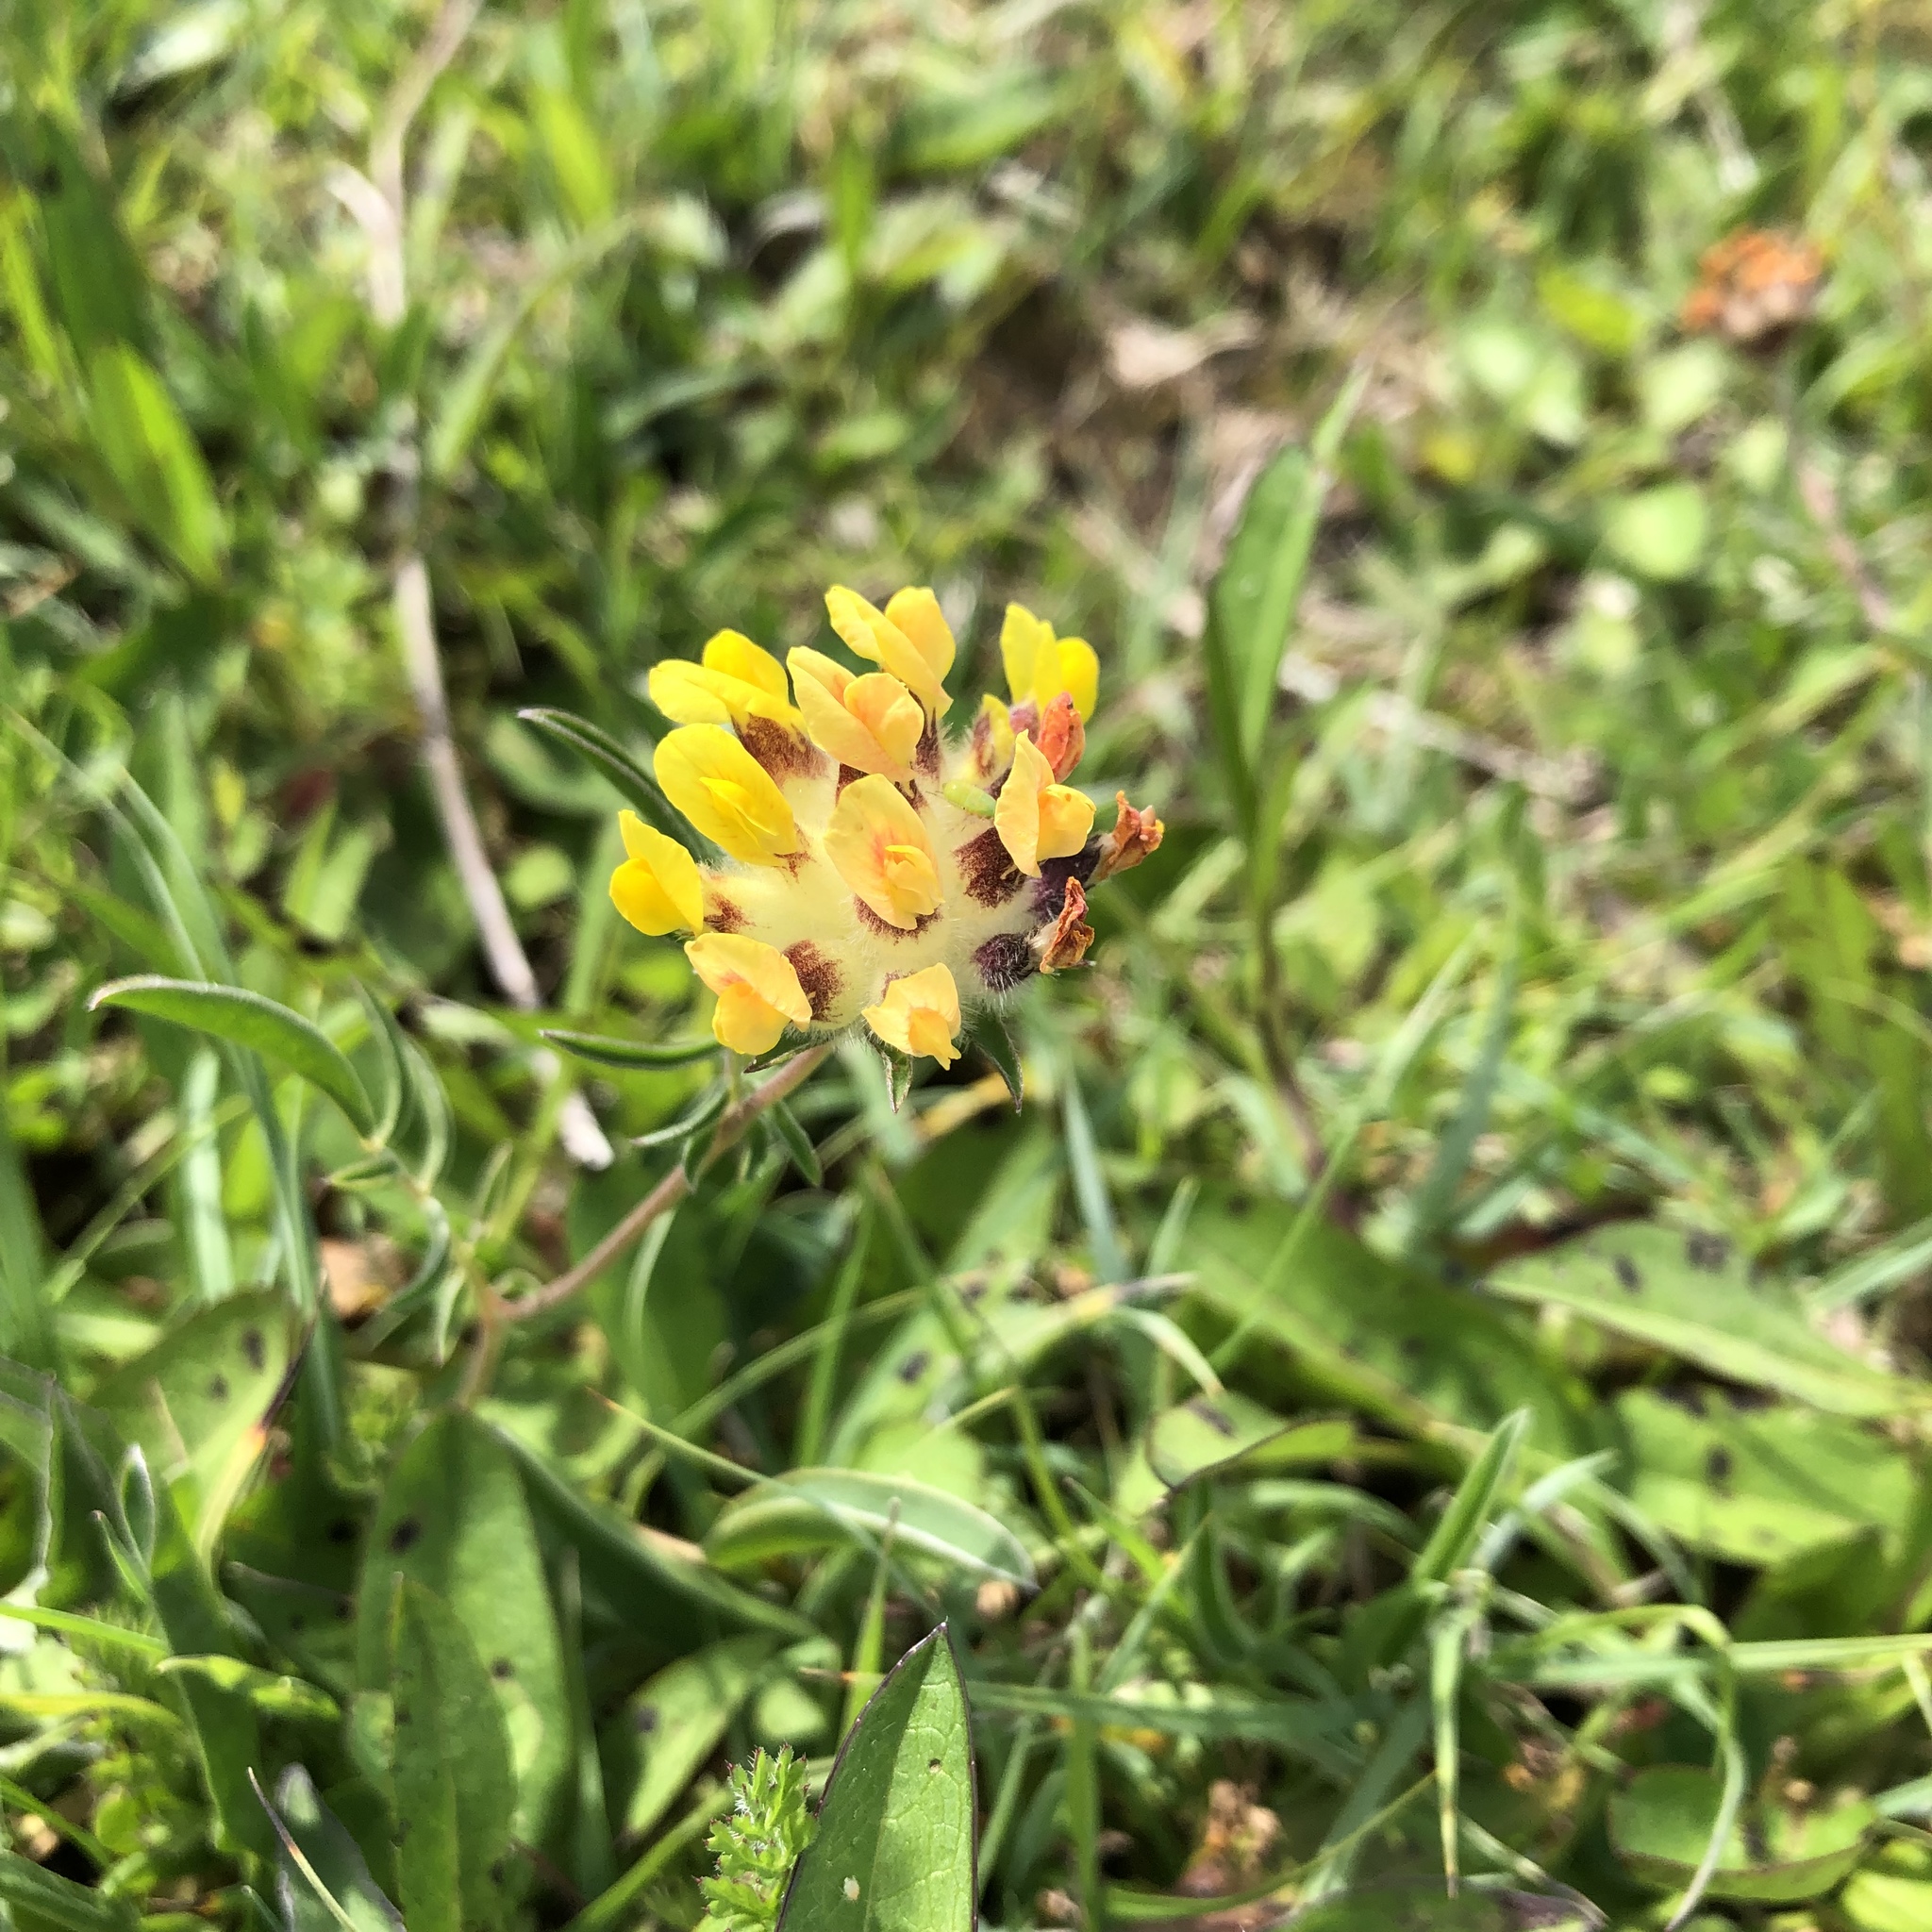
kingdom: Plantae
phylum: Tracheophyta
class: Magnoliopsida
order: Fabales
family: Fabaceae
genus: Anthyllis
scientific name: Anthyllis vulneraria
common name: Kidney vetch
